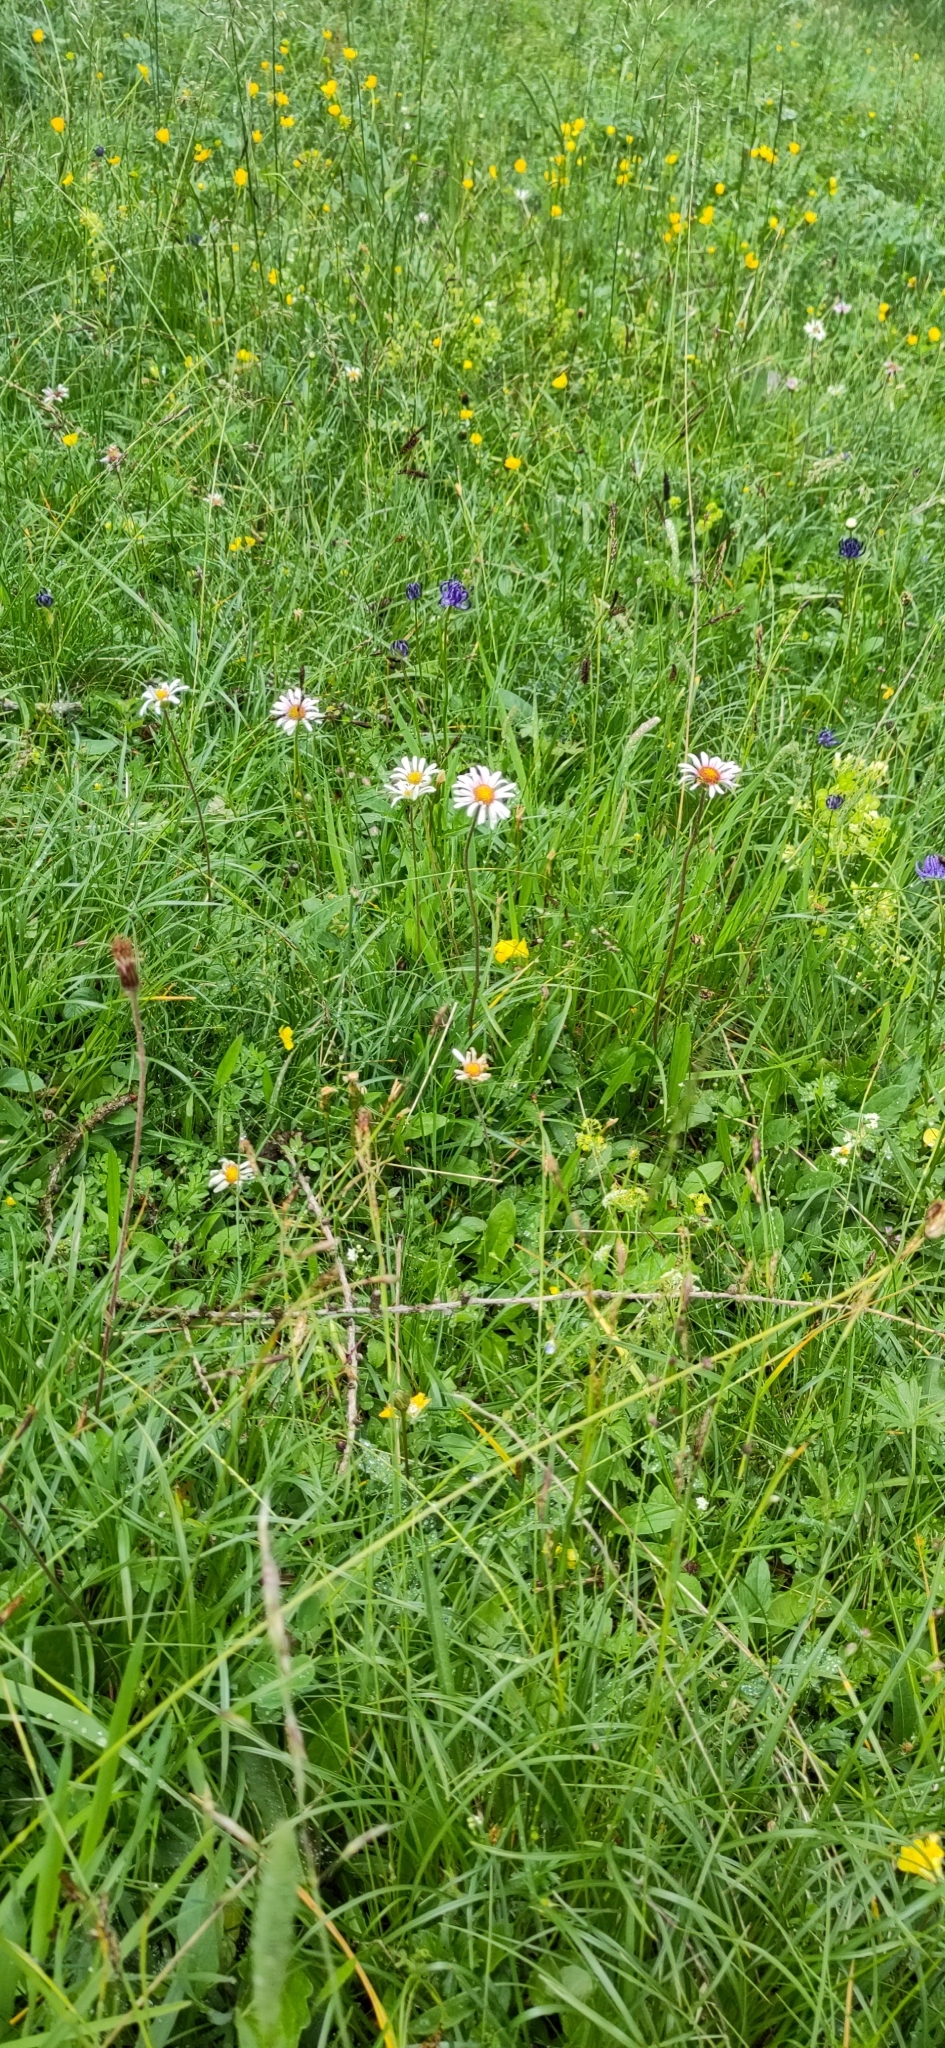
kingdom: Plantae
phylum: Tracheophyta
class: Magnoliopsida
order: Asterales
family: Asteraceae
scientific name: Asteraceae
